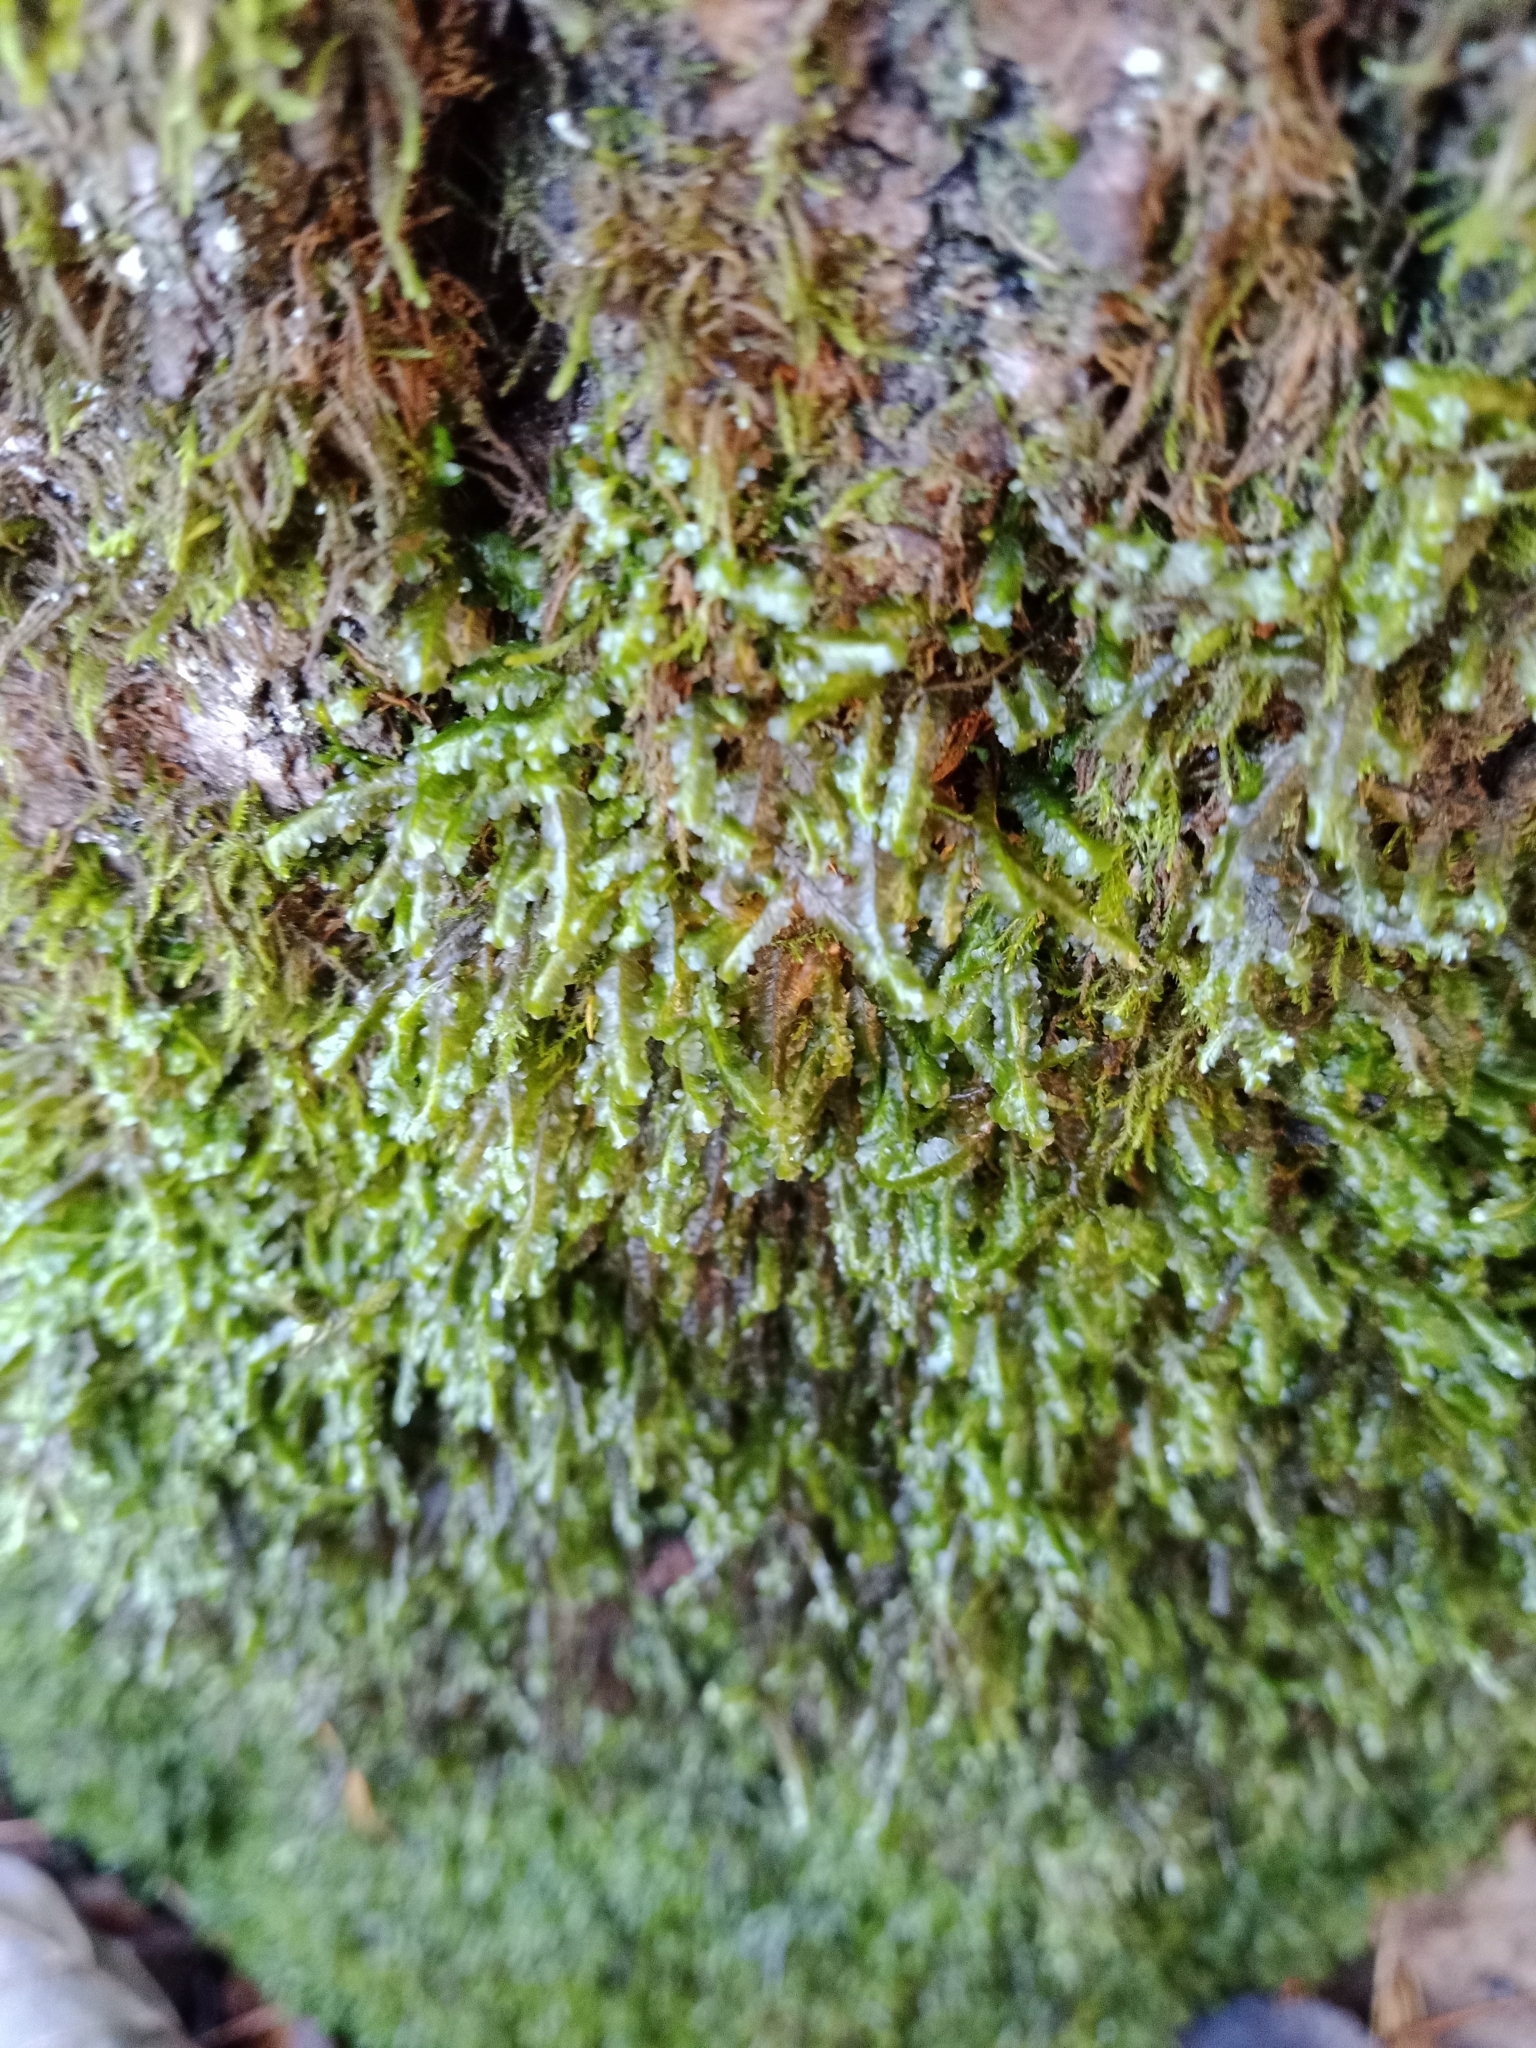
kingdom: Plantae
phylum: Bryophyta
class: Bryopsida
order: Hypnales
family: Neckeraceae
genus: Homalia
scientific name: Homalia trichomanoides
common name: Lime homalia moss
